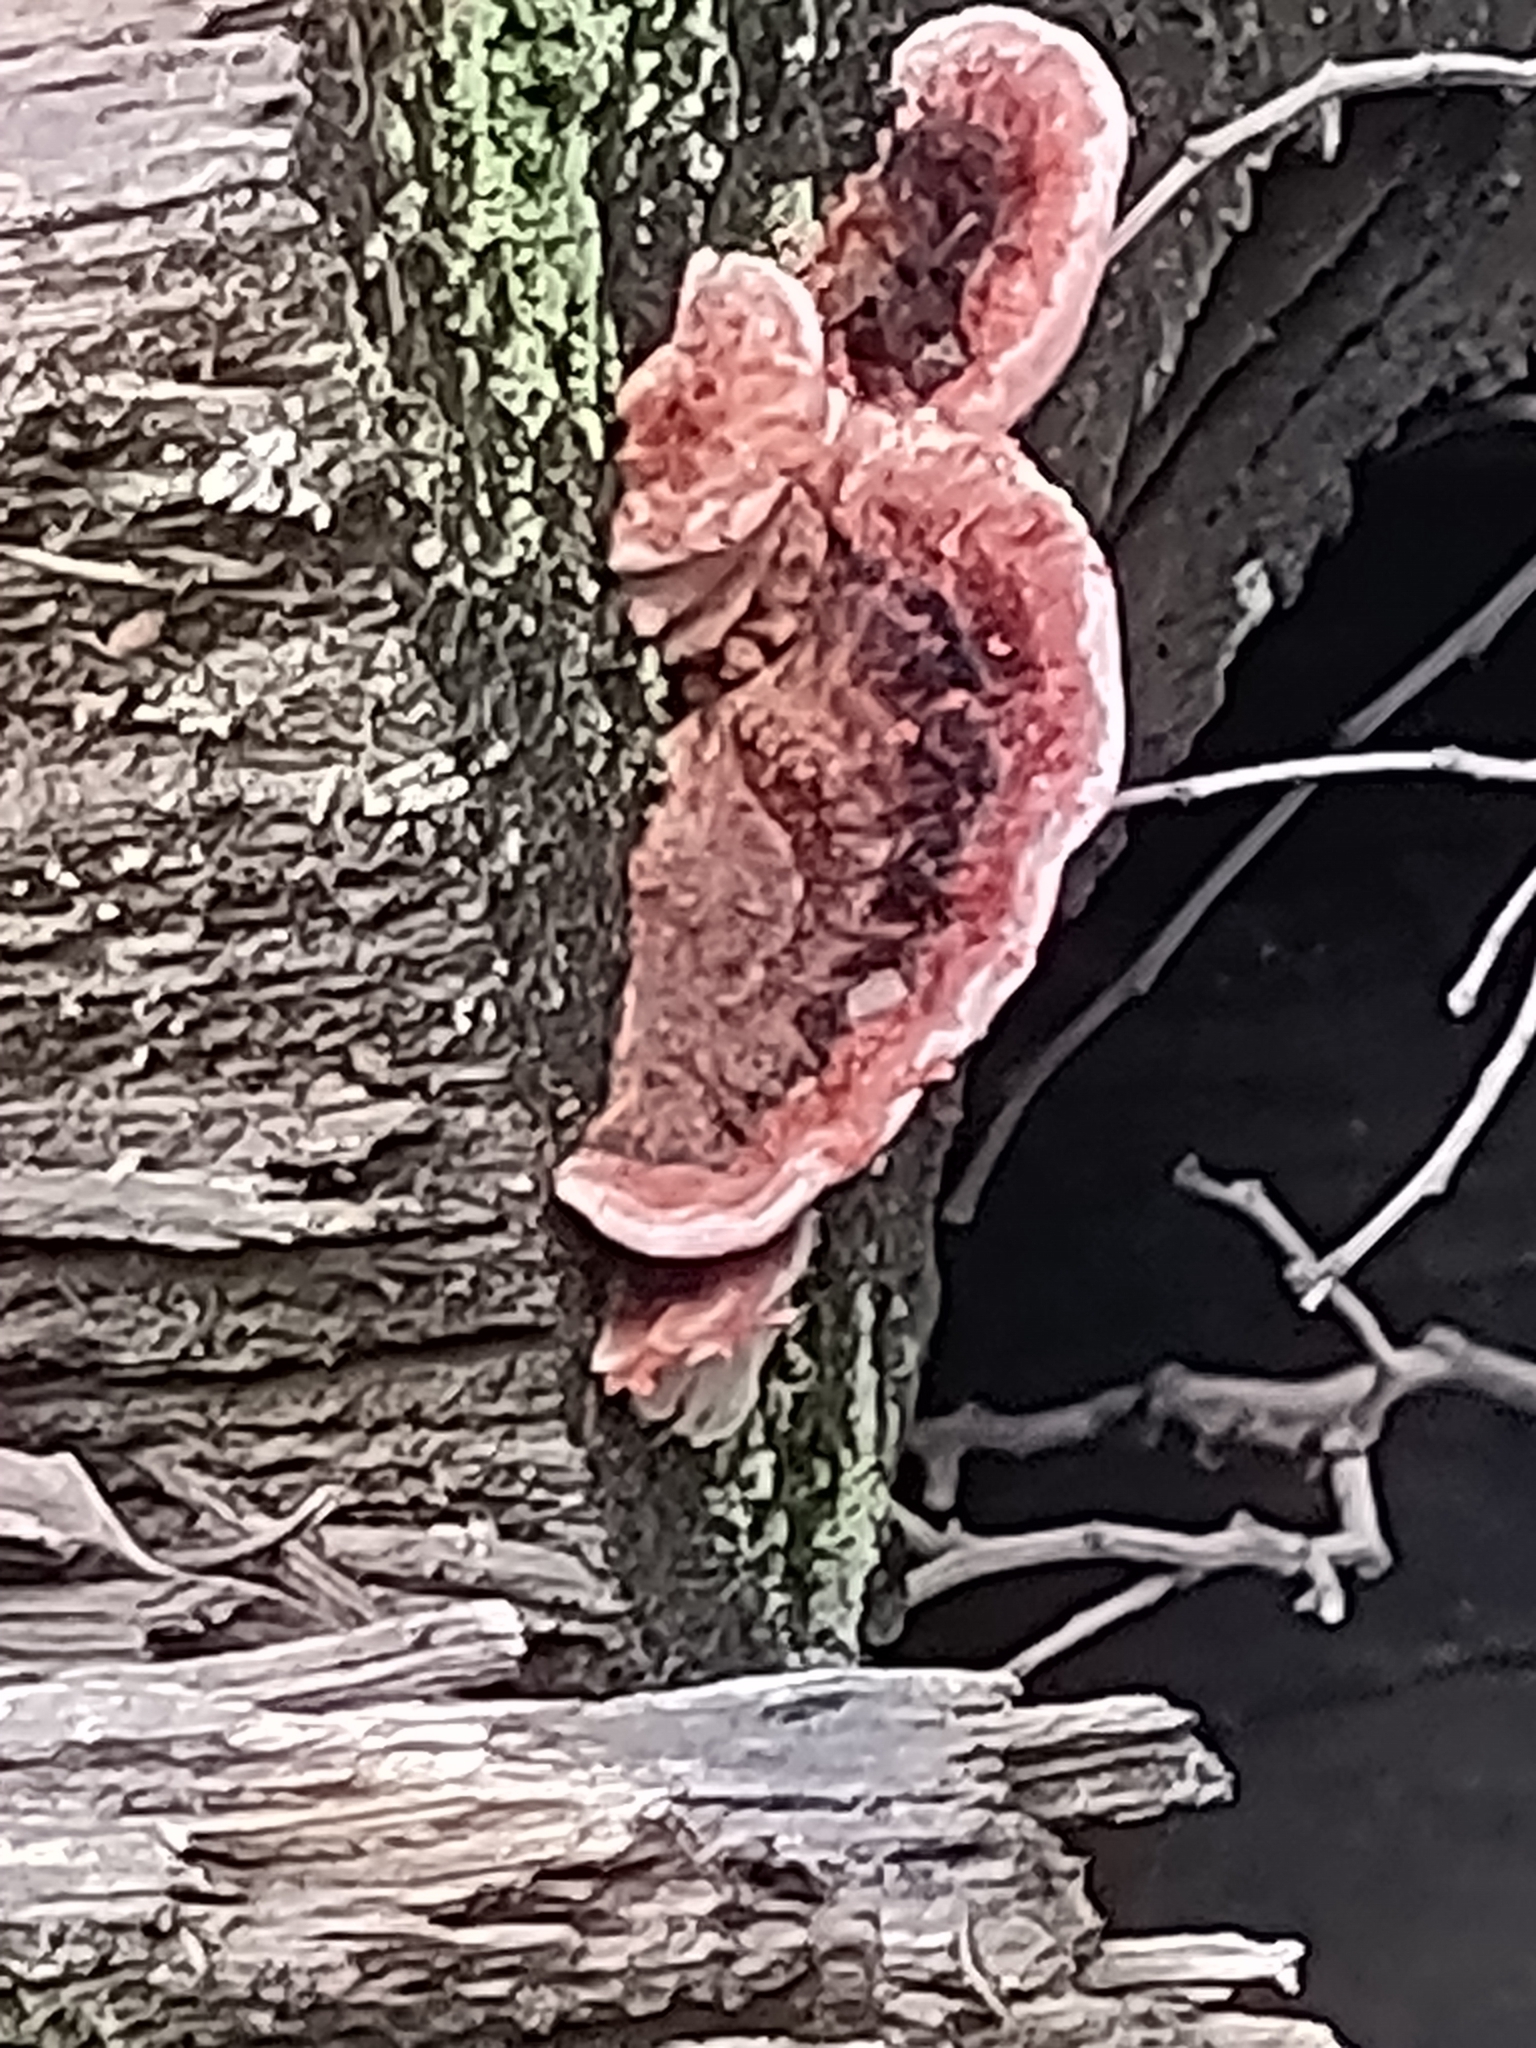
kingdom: Fungi
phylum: Basidiomycota
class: Agaricomycetes
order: Polyporales
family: Fomitopsidaceae
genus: Rhodofomitopsis
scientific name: Rhodofomitopsis lilacinogilva
